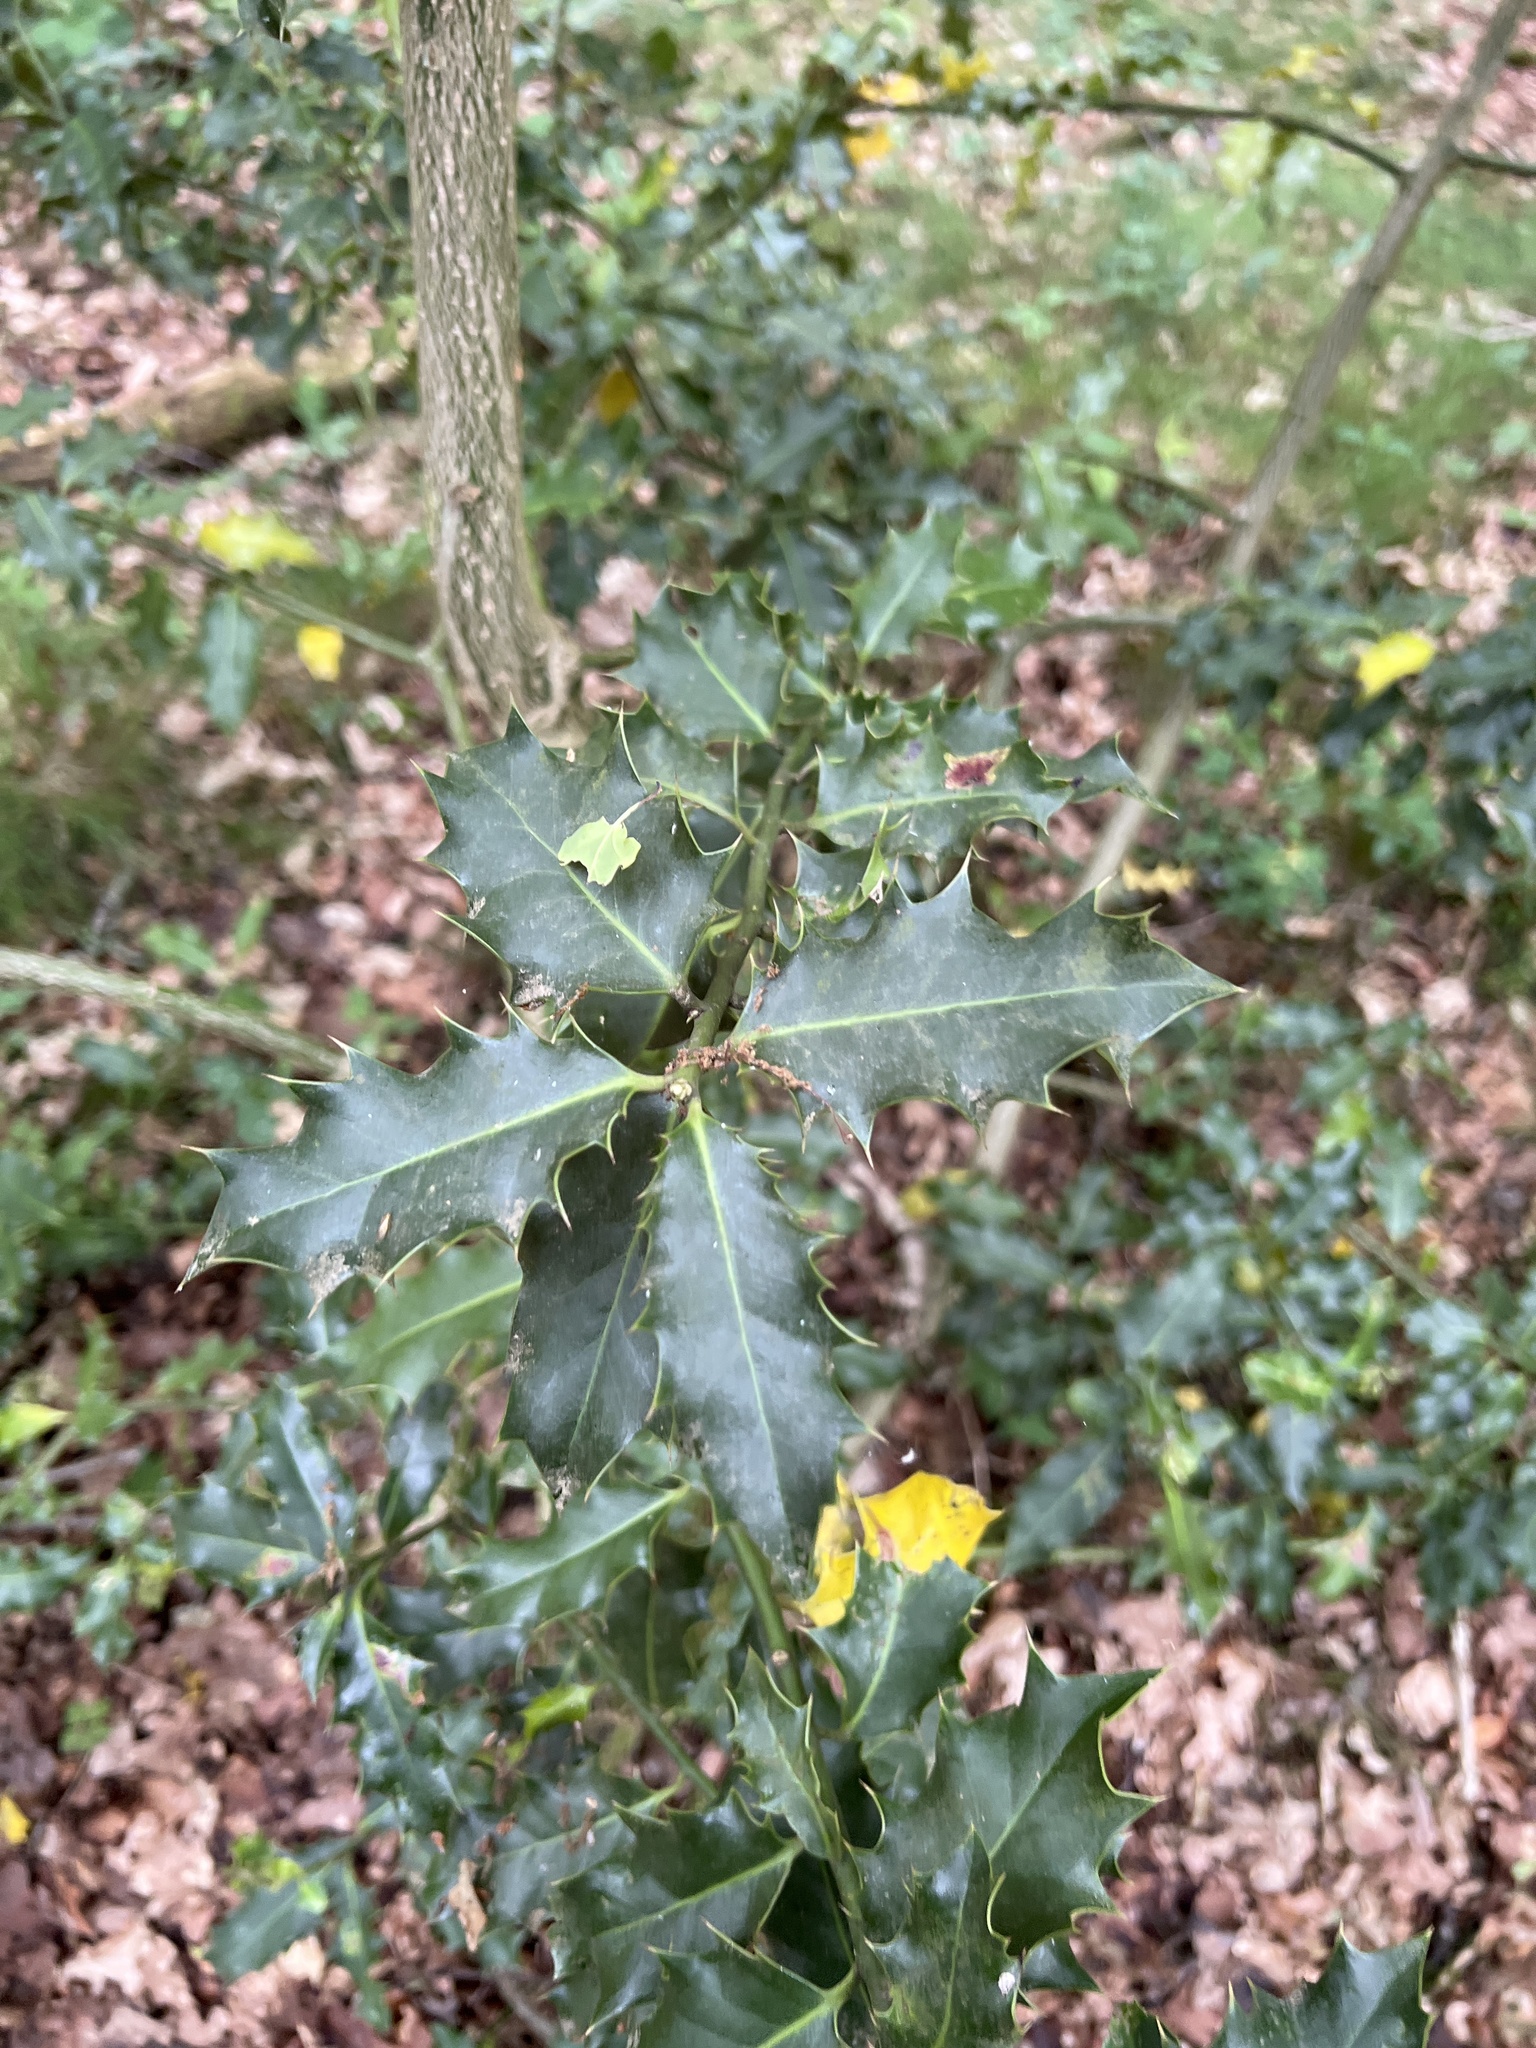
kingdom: Plantae
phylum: Tracheophyta
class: Magnoliopsida
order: Aquifoliales
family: Aquifoliaceae
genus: Ilex
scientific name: Ilex aquifolium
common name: English holly
